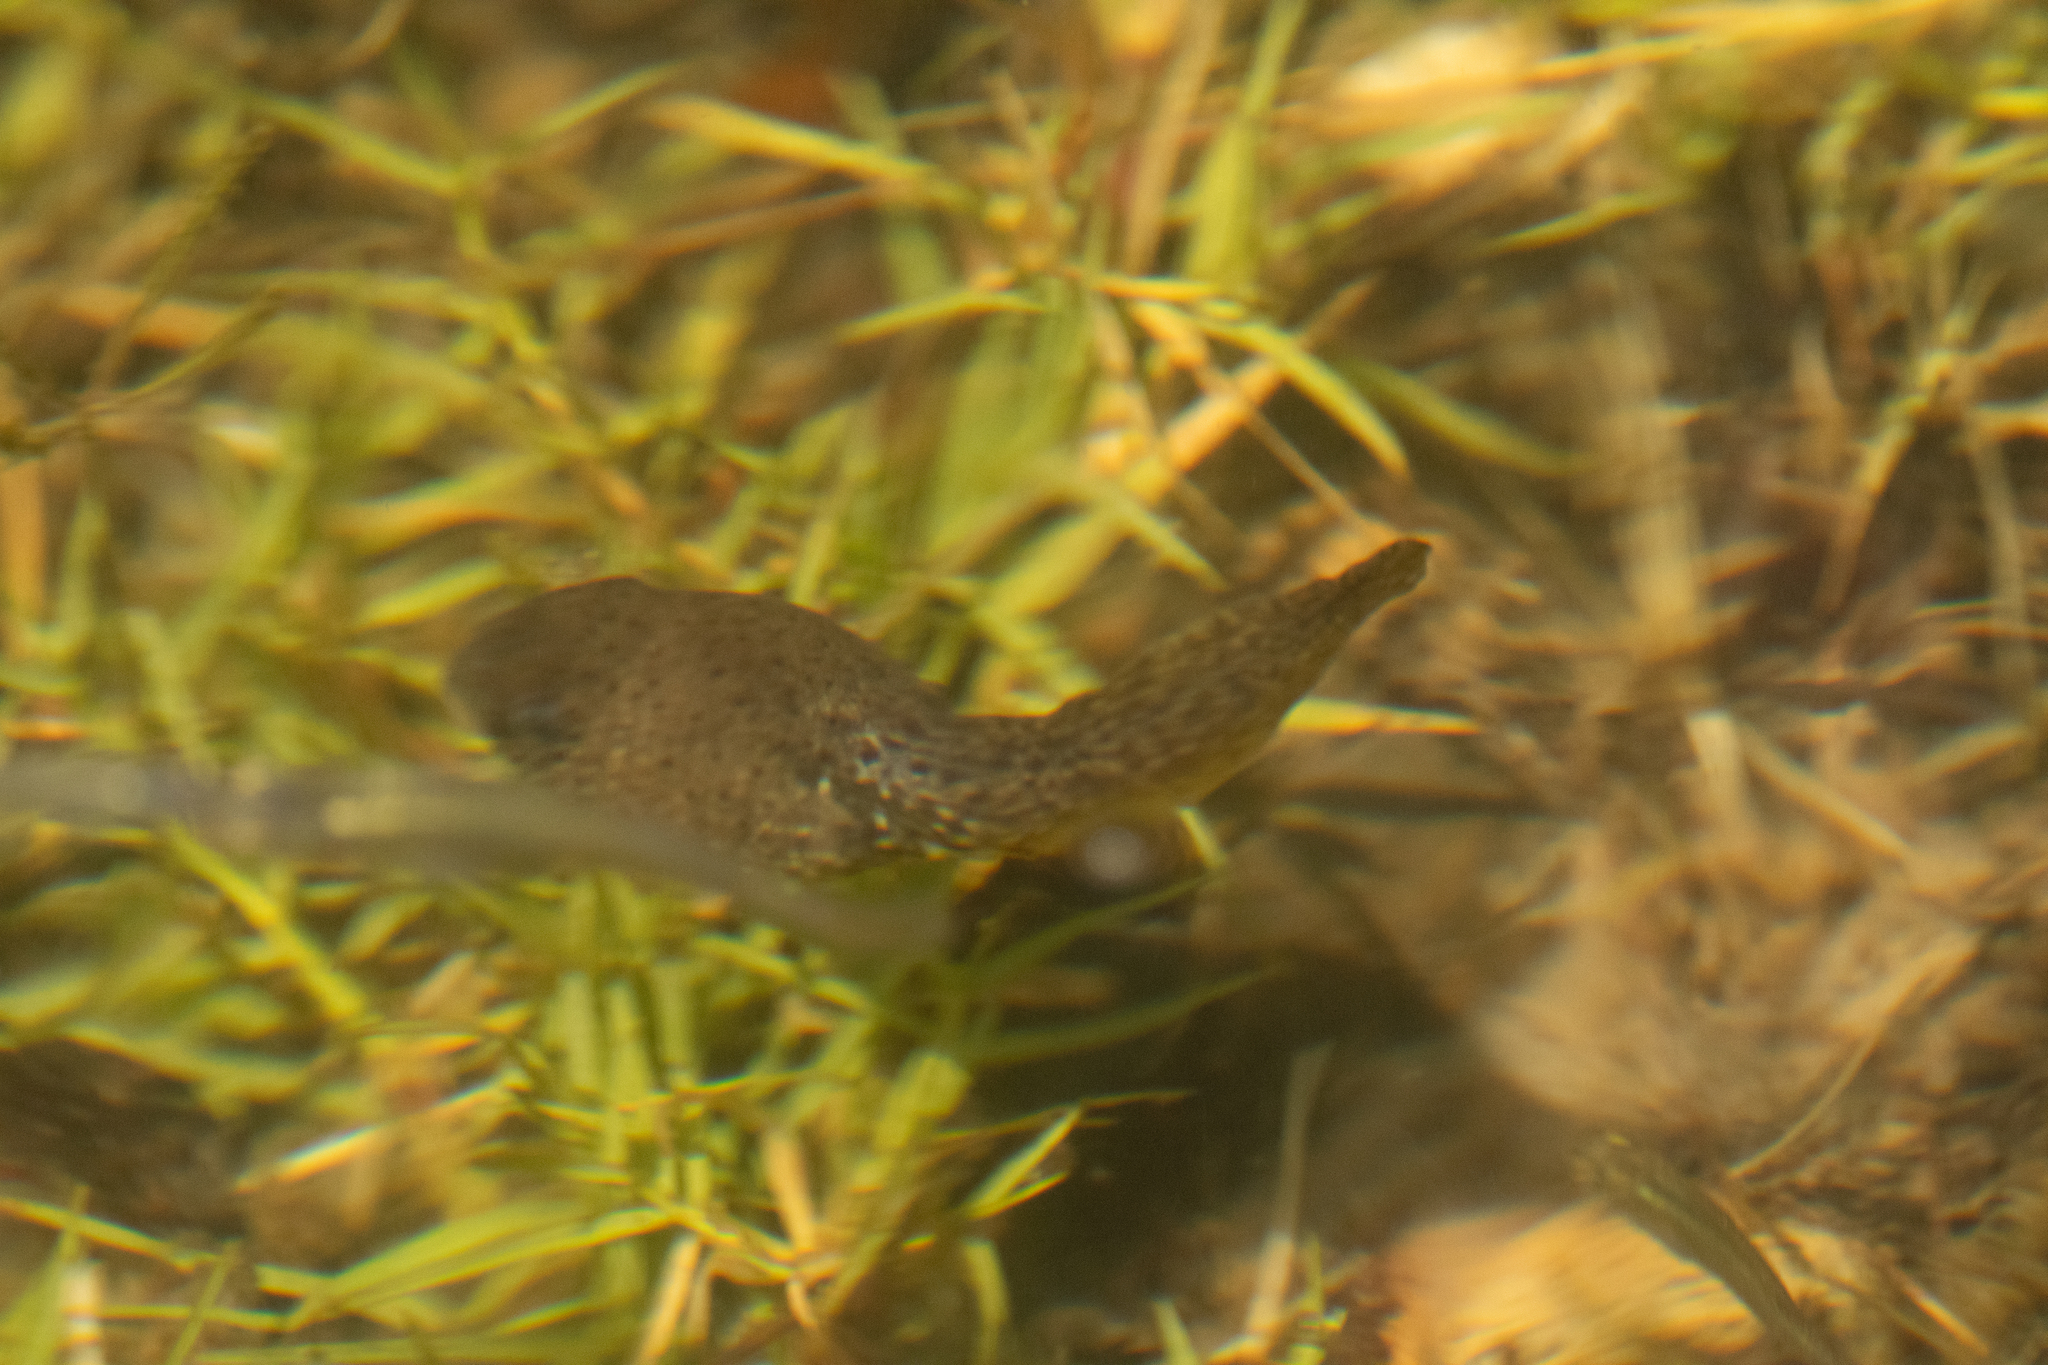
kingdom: Animalia
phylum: Chordata
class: Amphibia
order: Anura
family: Ranidae
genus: Lithobates
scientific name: Lithobates catesbeianus
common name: American bullfrog
